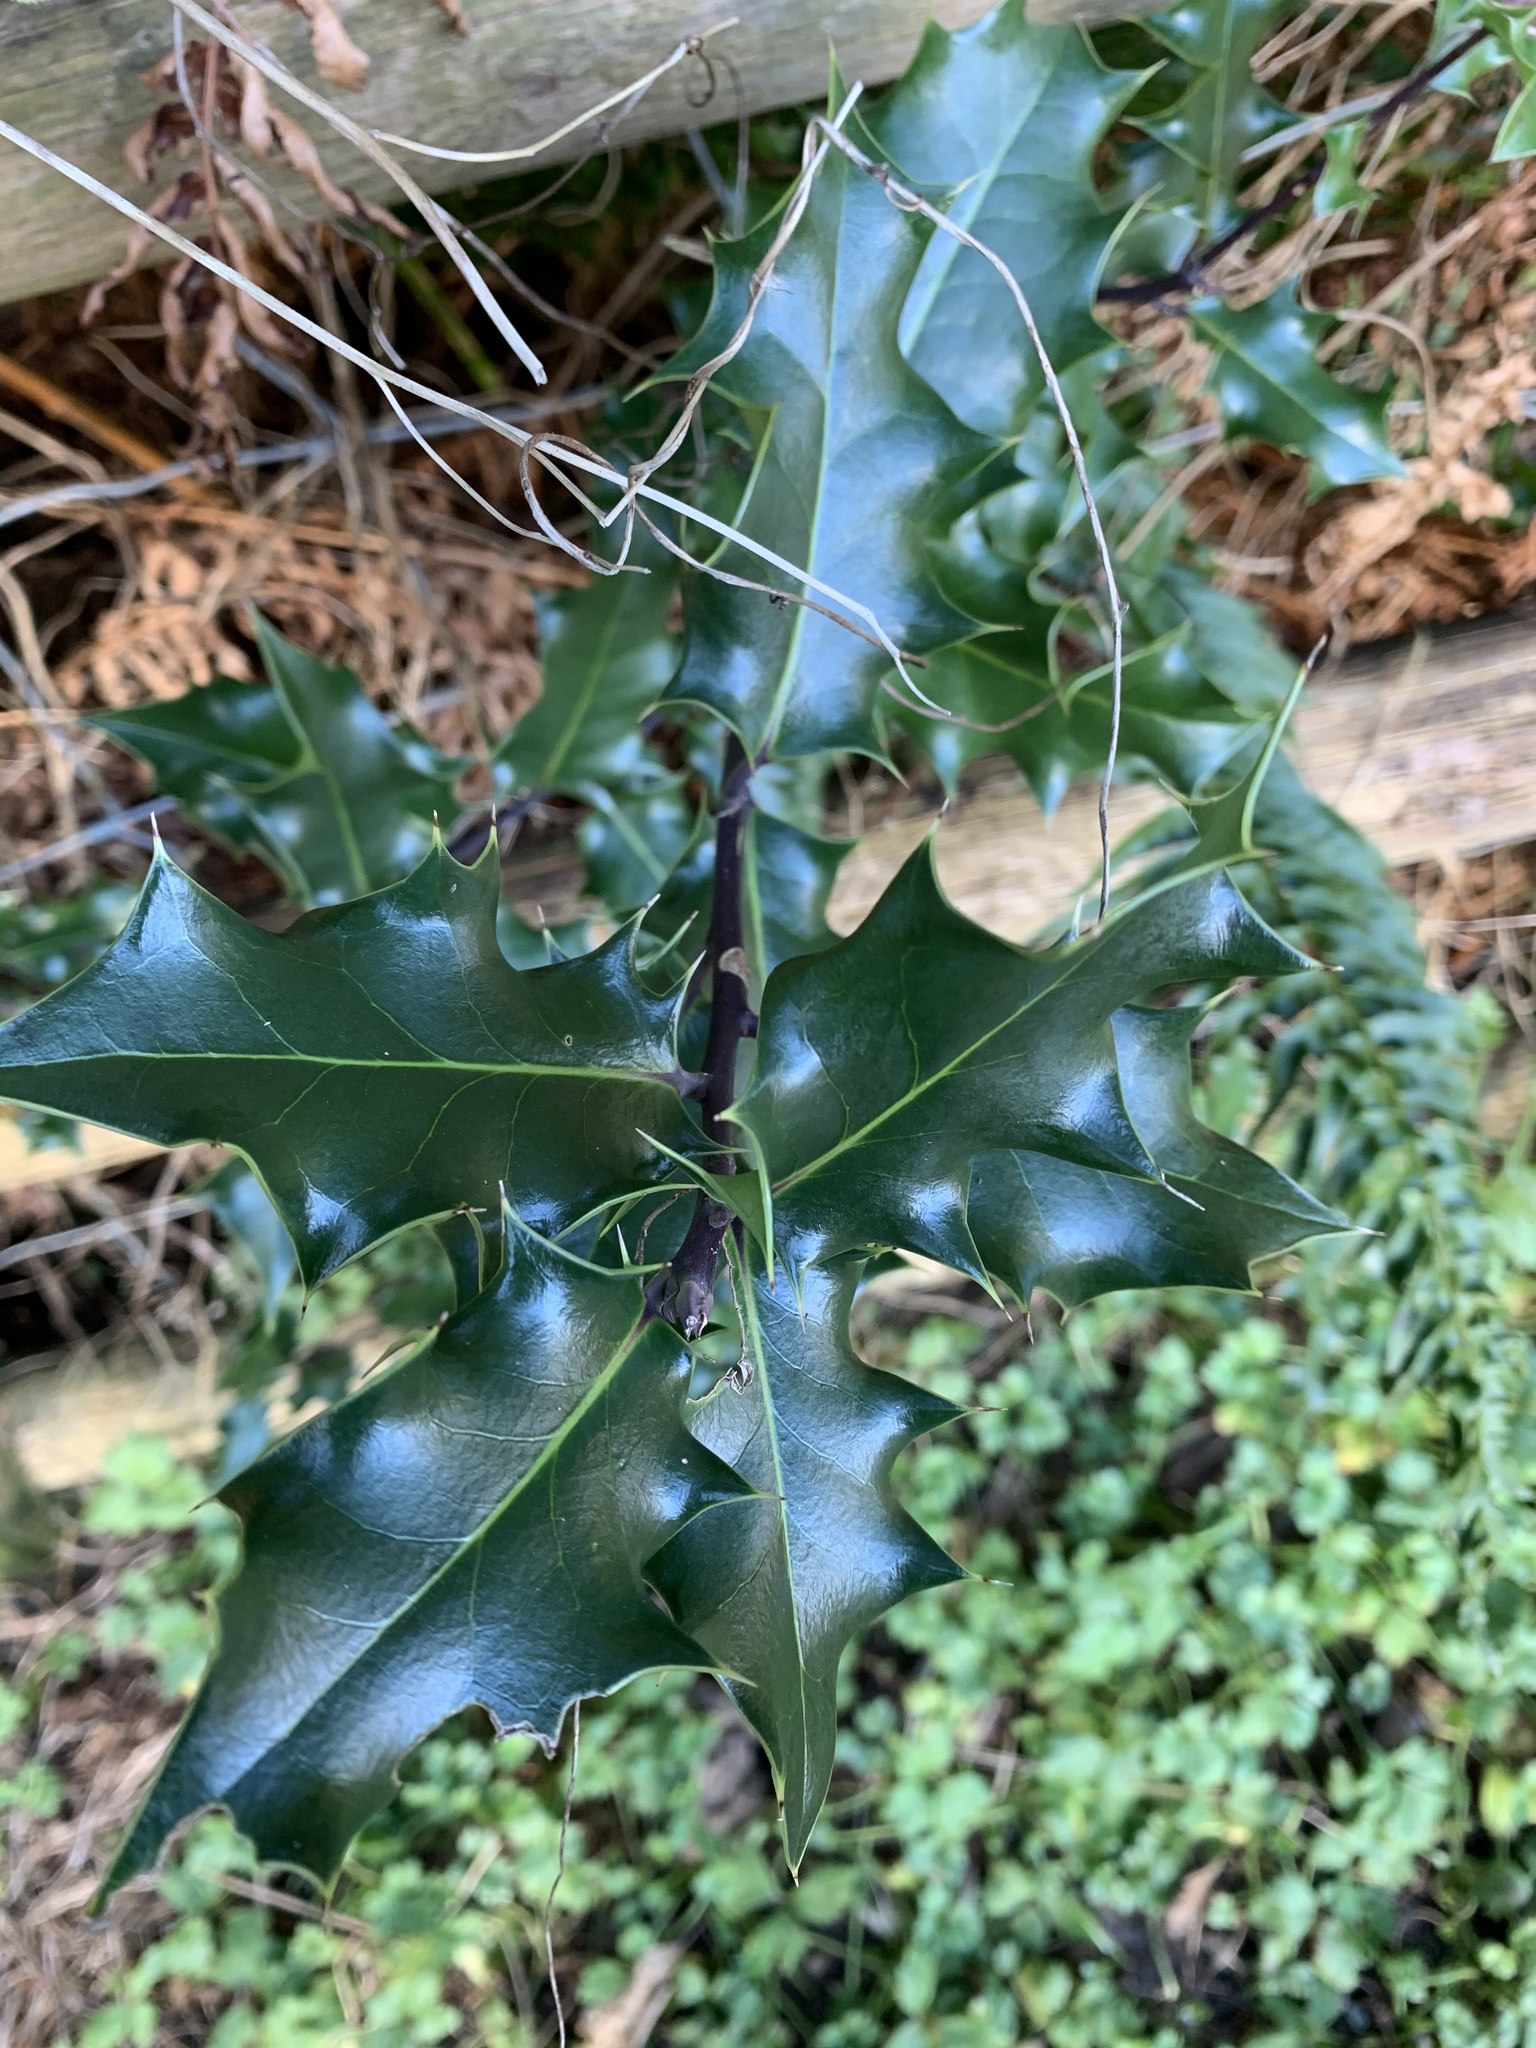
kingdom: Plantae
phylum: Tracheophyta
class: Magnoliopsida
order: Aquifoliales
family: Aquifoliaceae
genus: Ilex
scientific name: Ilex aquifolium
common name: English holly
